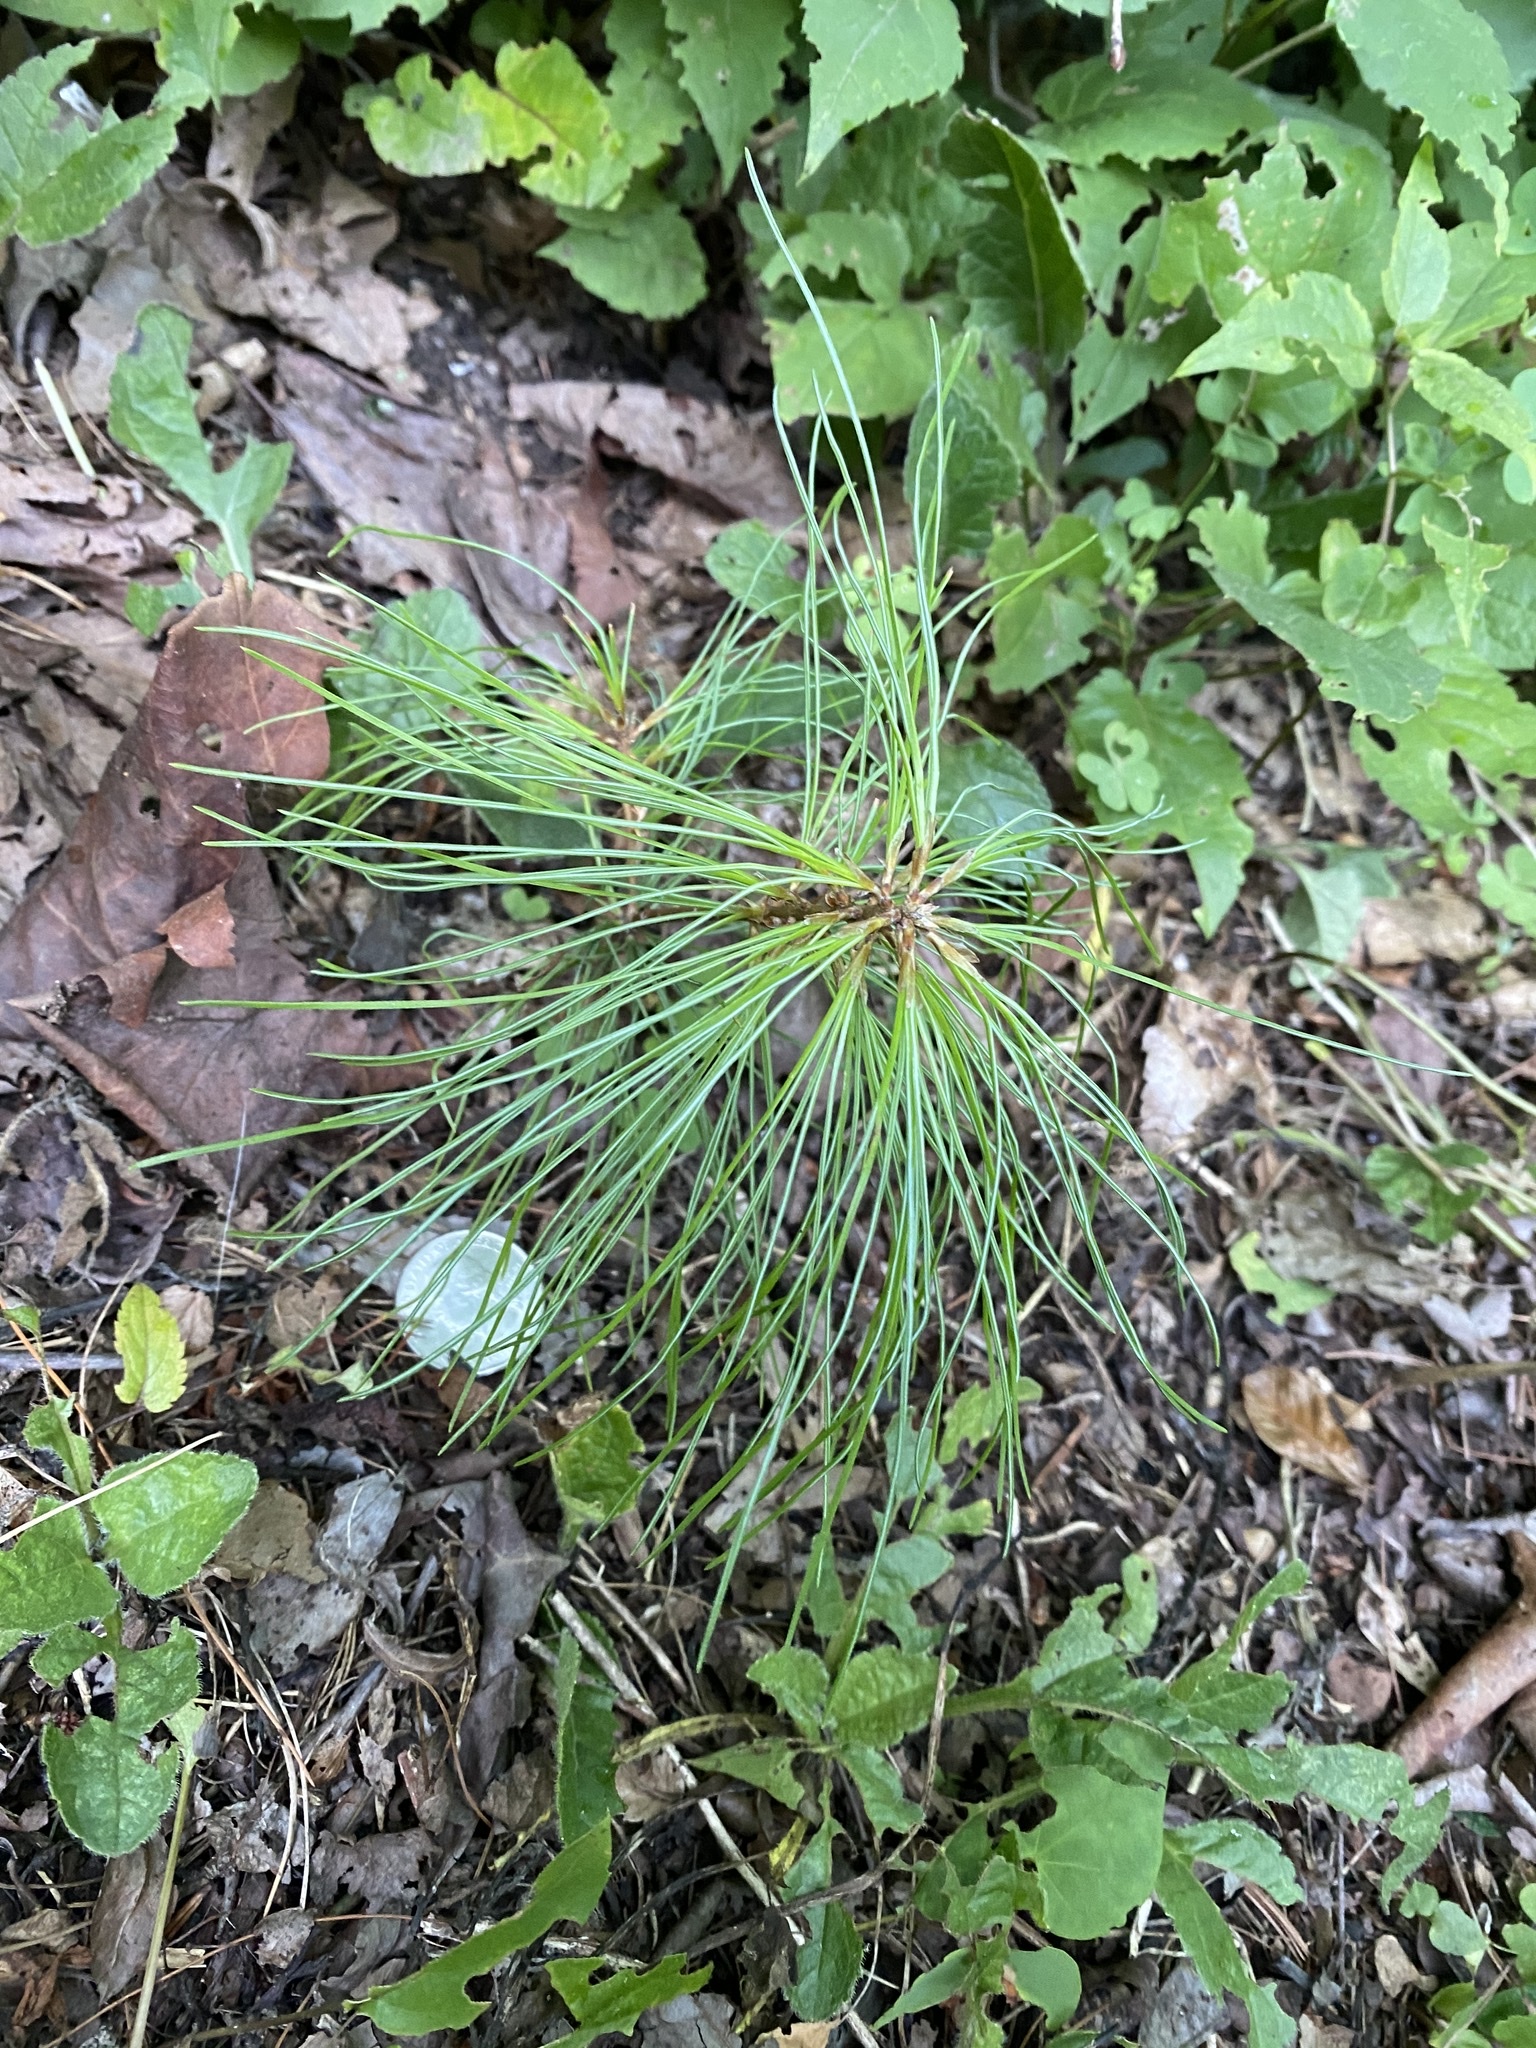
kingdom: Plantae
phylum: Tracheophyta
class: Pinopsida
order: Pinales
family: Pinaceae
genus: Pinus
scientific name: Pinus strobus
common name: Weymouth pine
